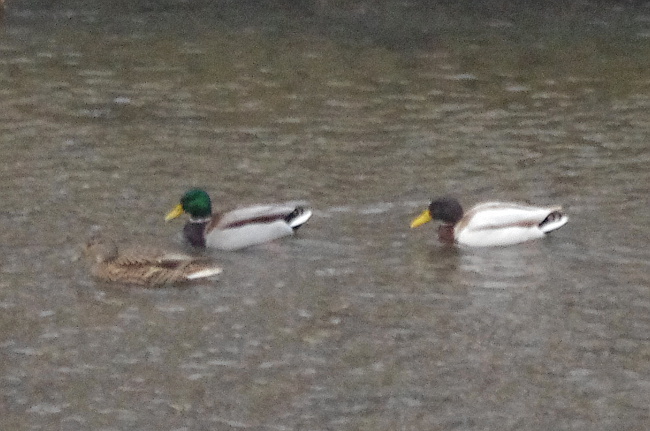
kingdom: Animalia
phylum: Chordata
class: Aves
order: Anseriformes
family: Anatidae
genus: Anas
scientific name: Anas platyrhynchos
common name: Mallard
